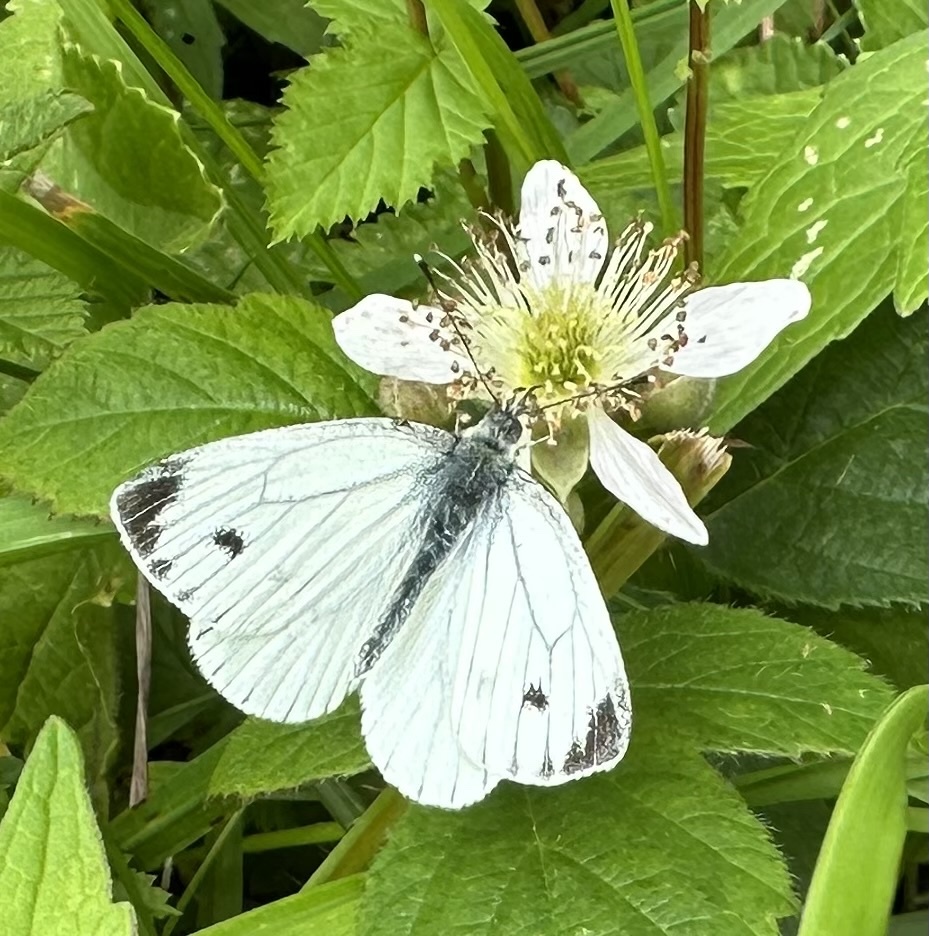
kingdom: Animalia
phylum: Arthropoda
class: Insecta
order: Lepidoptera
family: Pieridae
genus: Pieris
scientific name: Pieris napi
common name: Green-veined white
